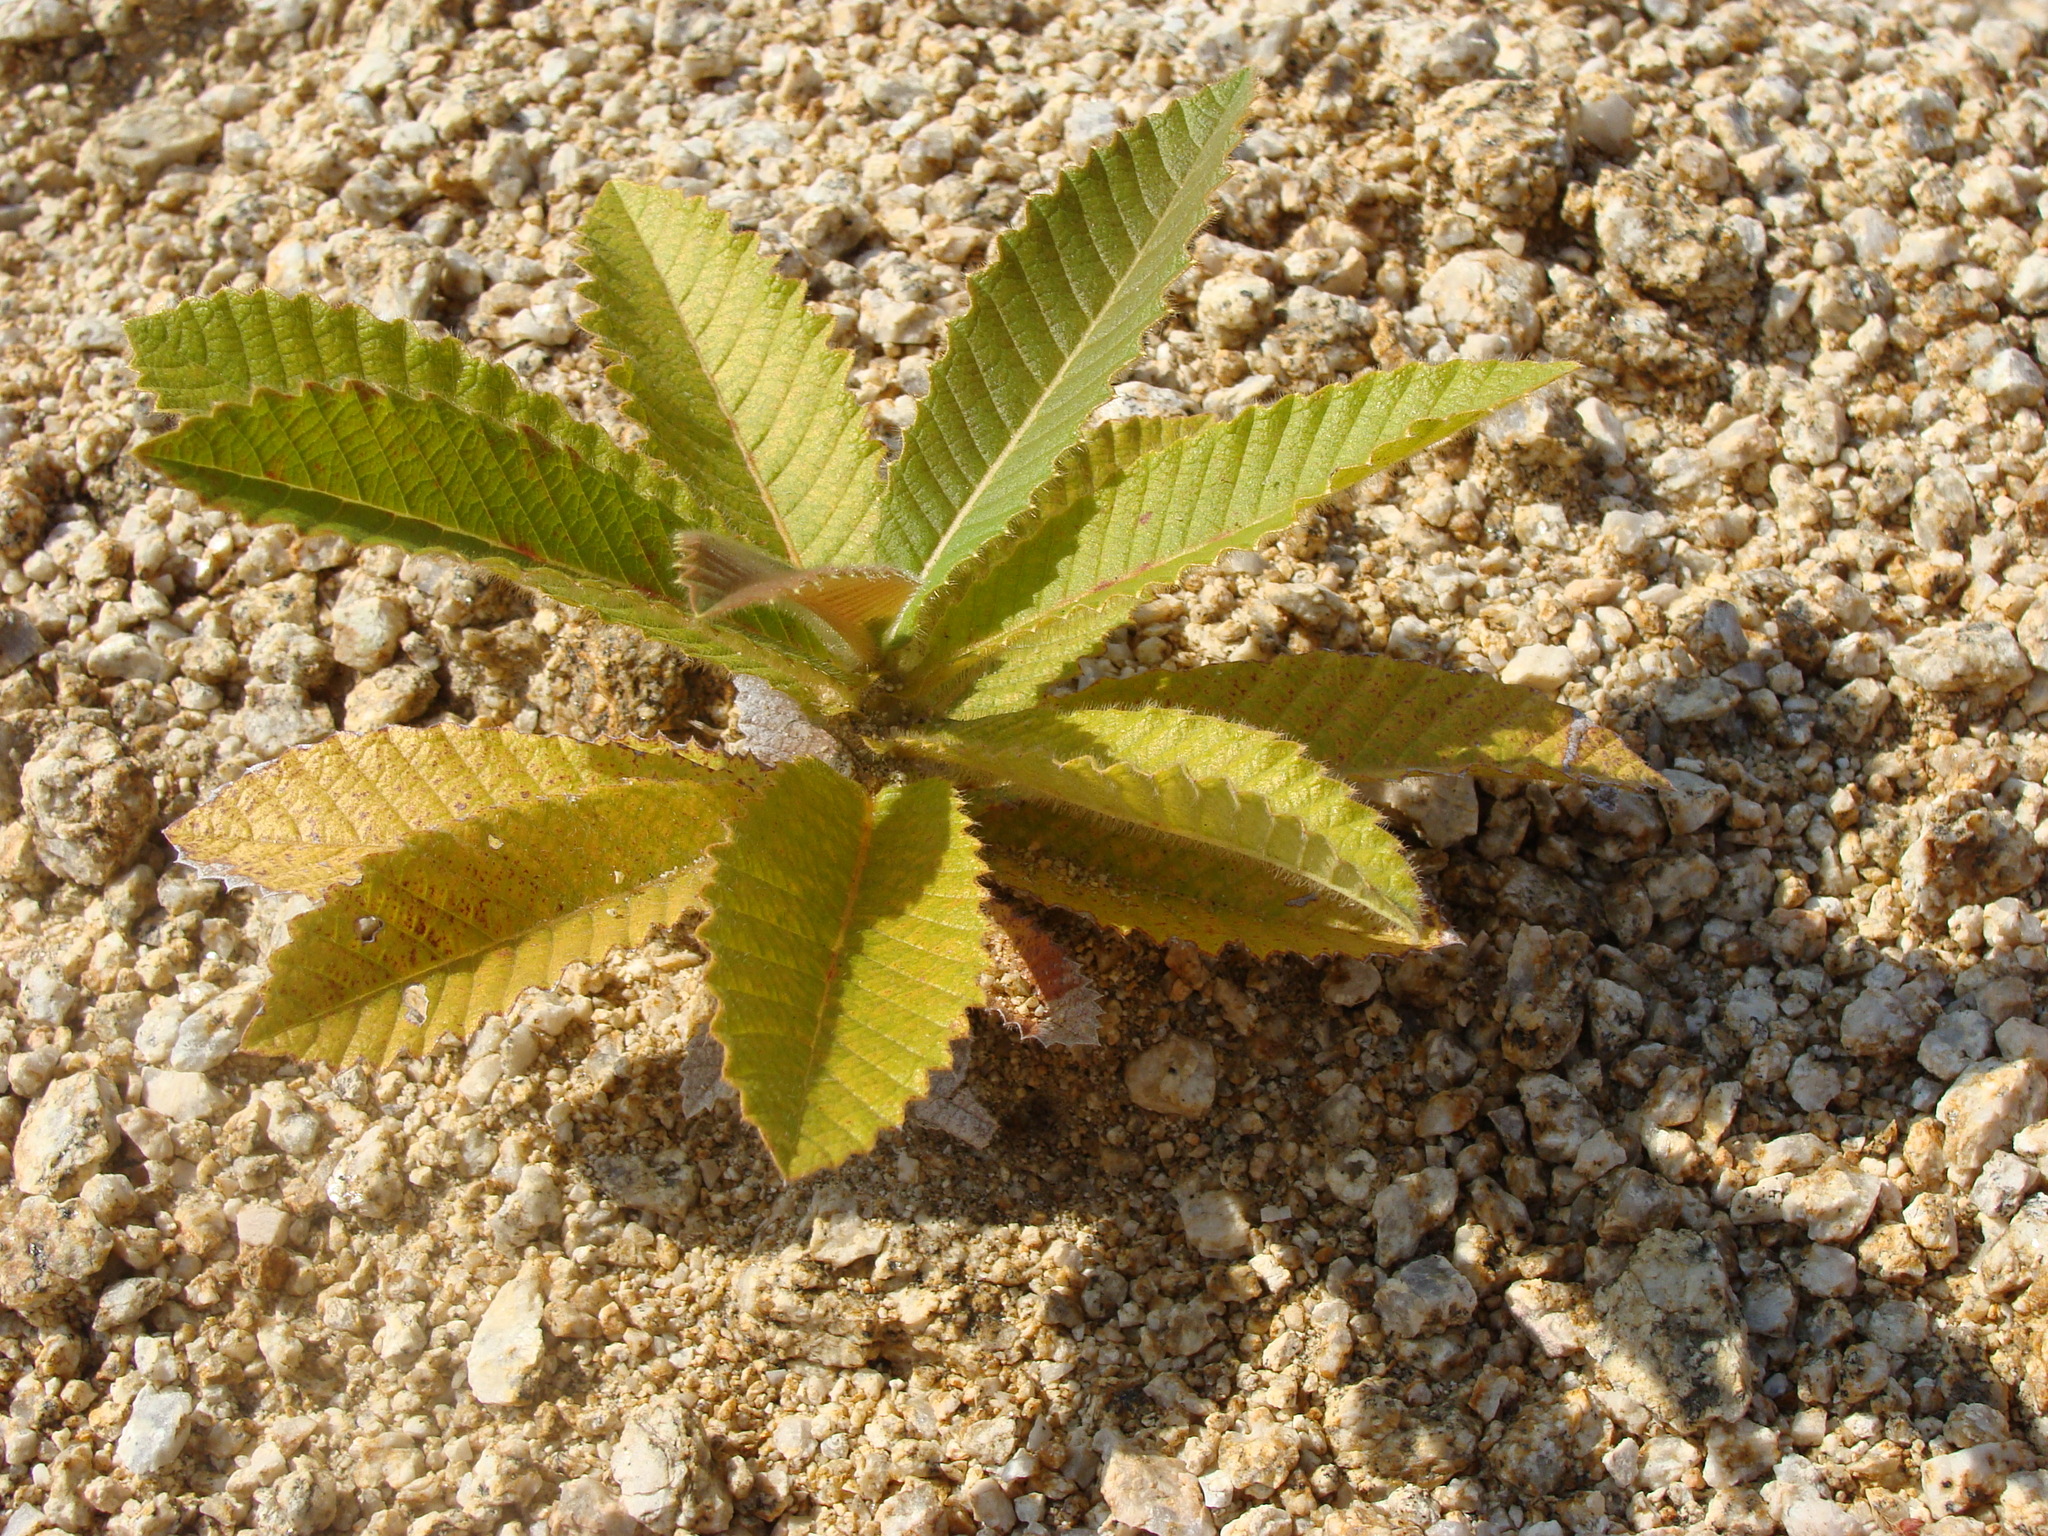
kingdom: Plantae
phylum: Tracheophyta
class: Magnoliopsida
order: Dilleniales
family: Dilleniaceae
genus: Curatella
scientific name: Curatella americana
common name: Sandpaper tree
